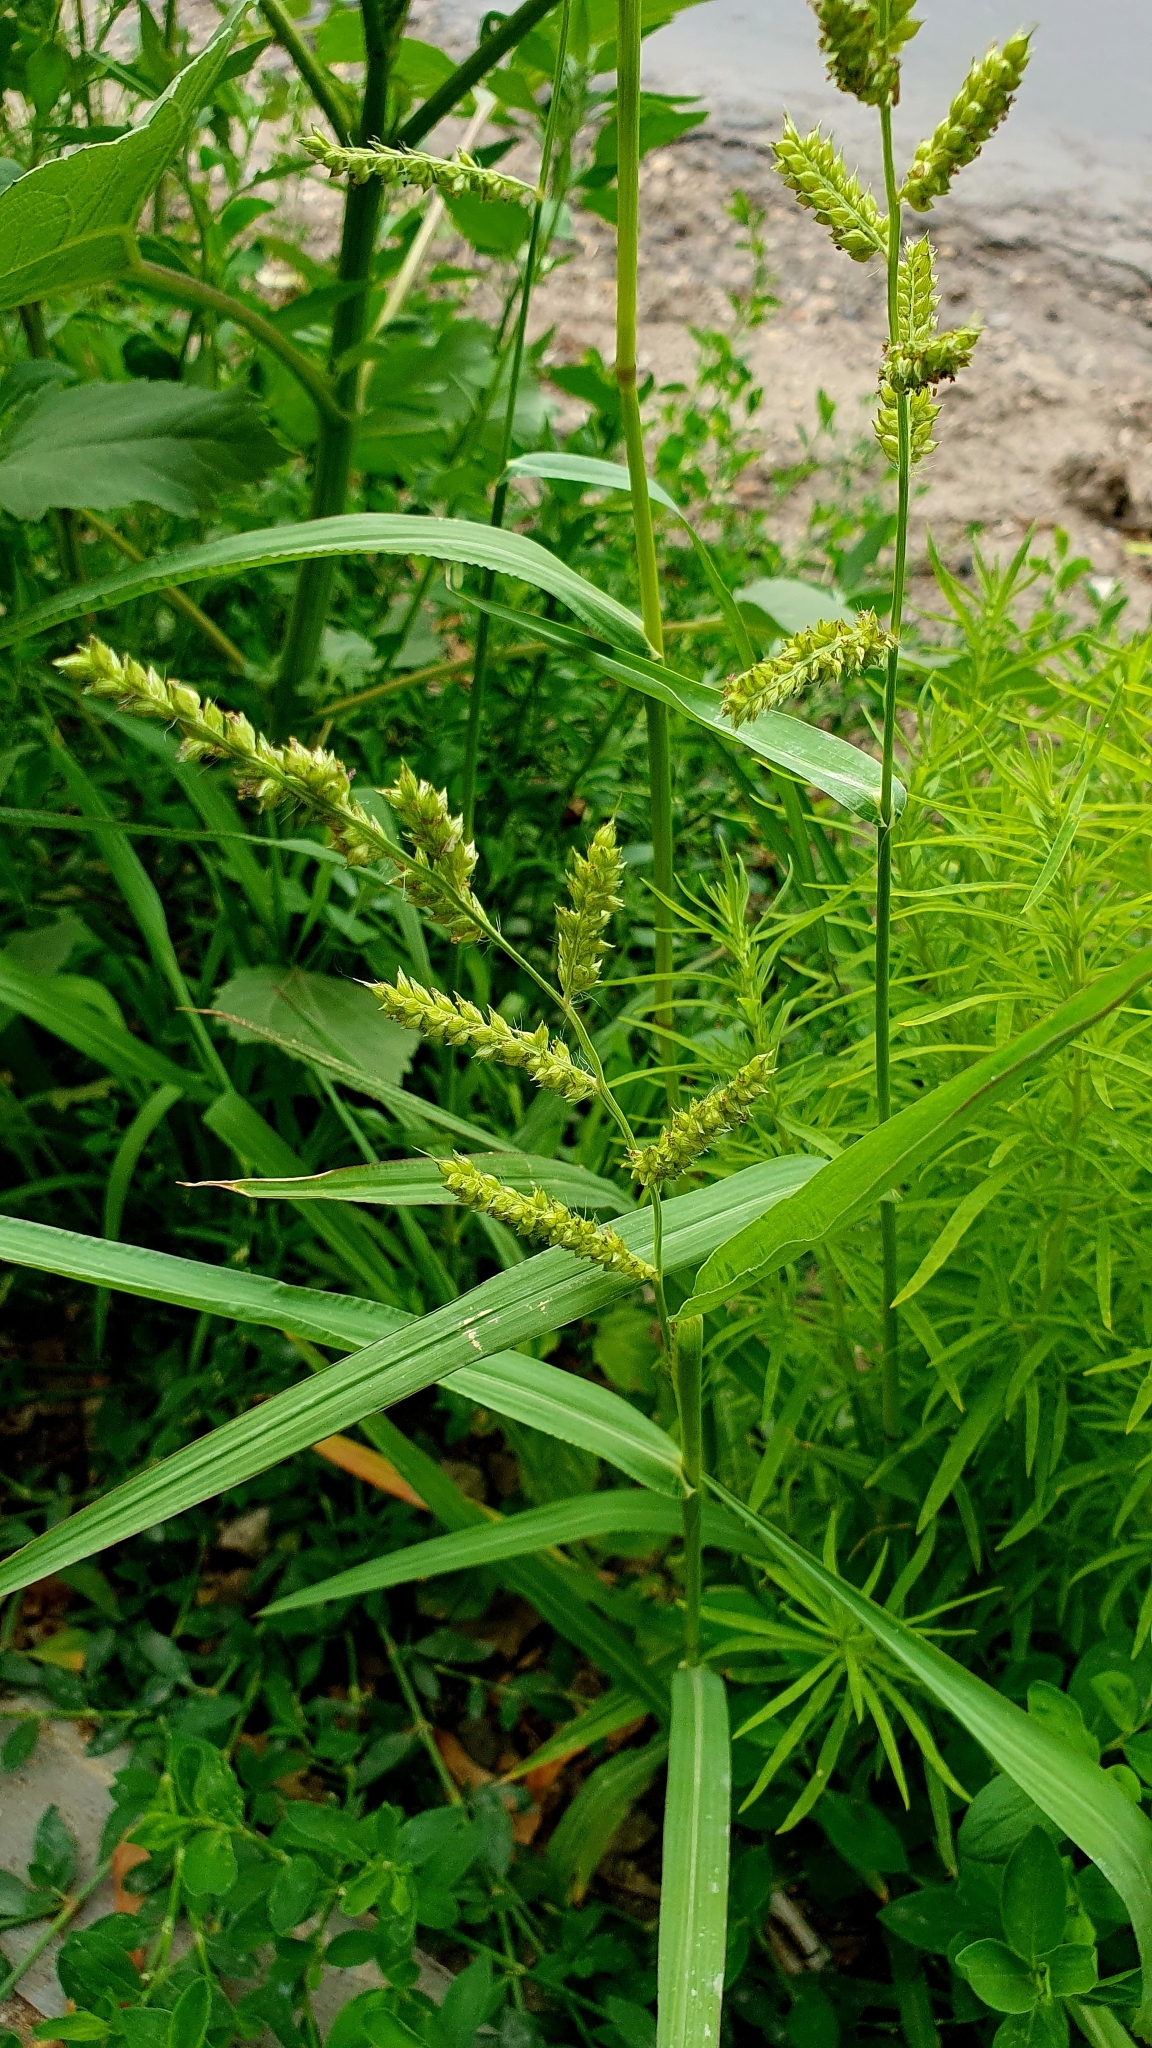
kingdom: Plantae
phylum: Tracheophyta
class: Liliopsida
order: Poales
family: Poaceae
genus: Echinochloa
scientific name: Echinochloa crus-galli
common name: Cockspur
